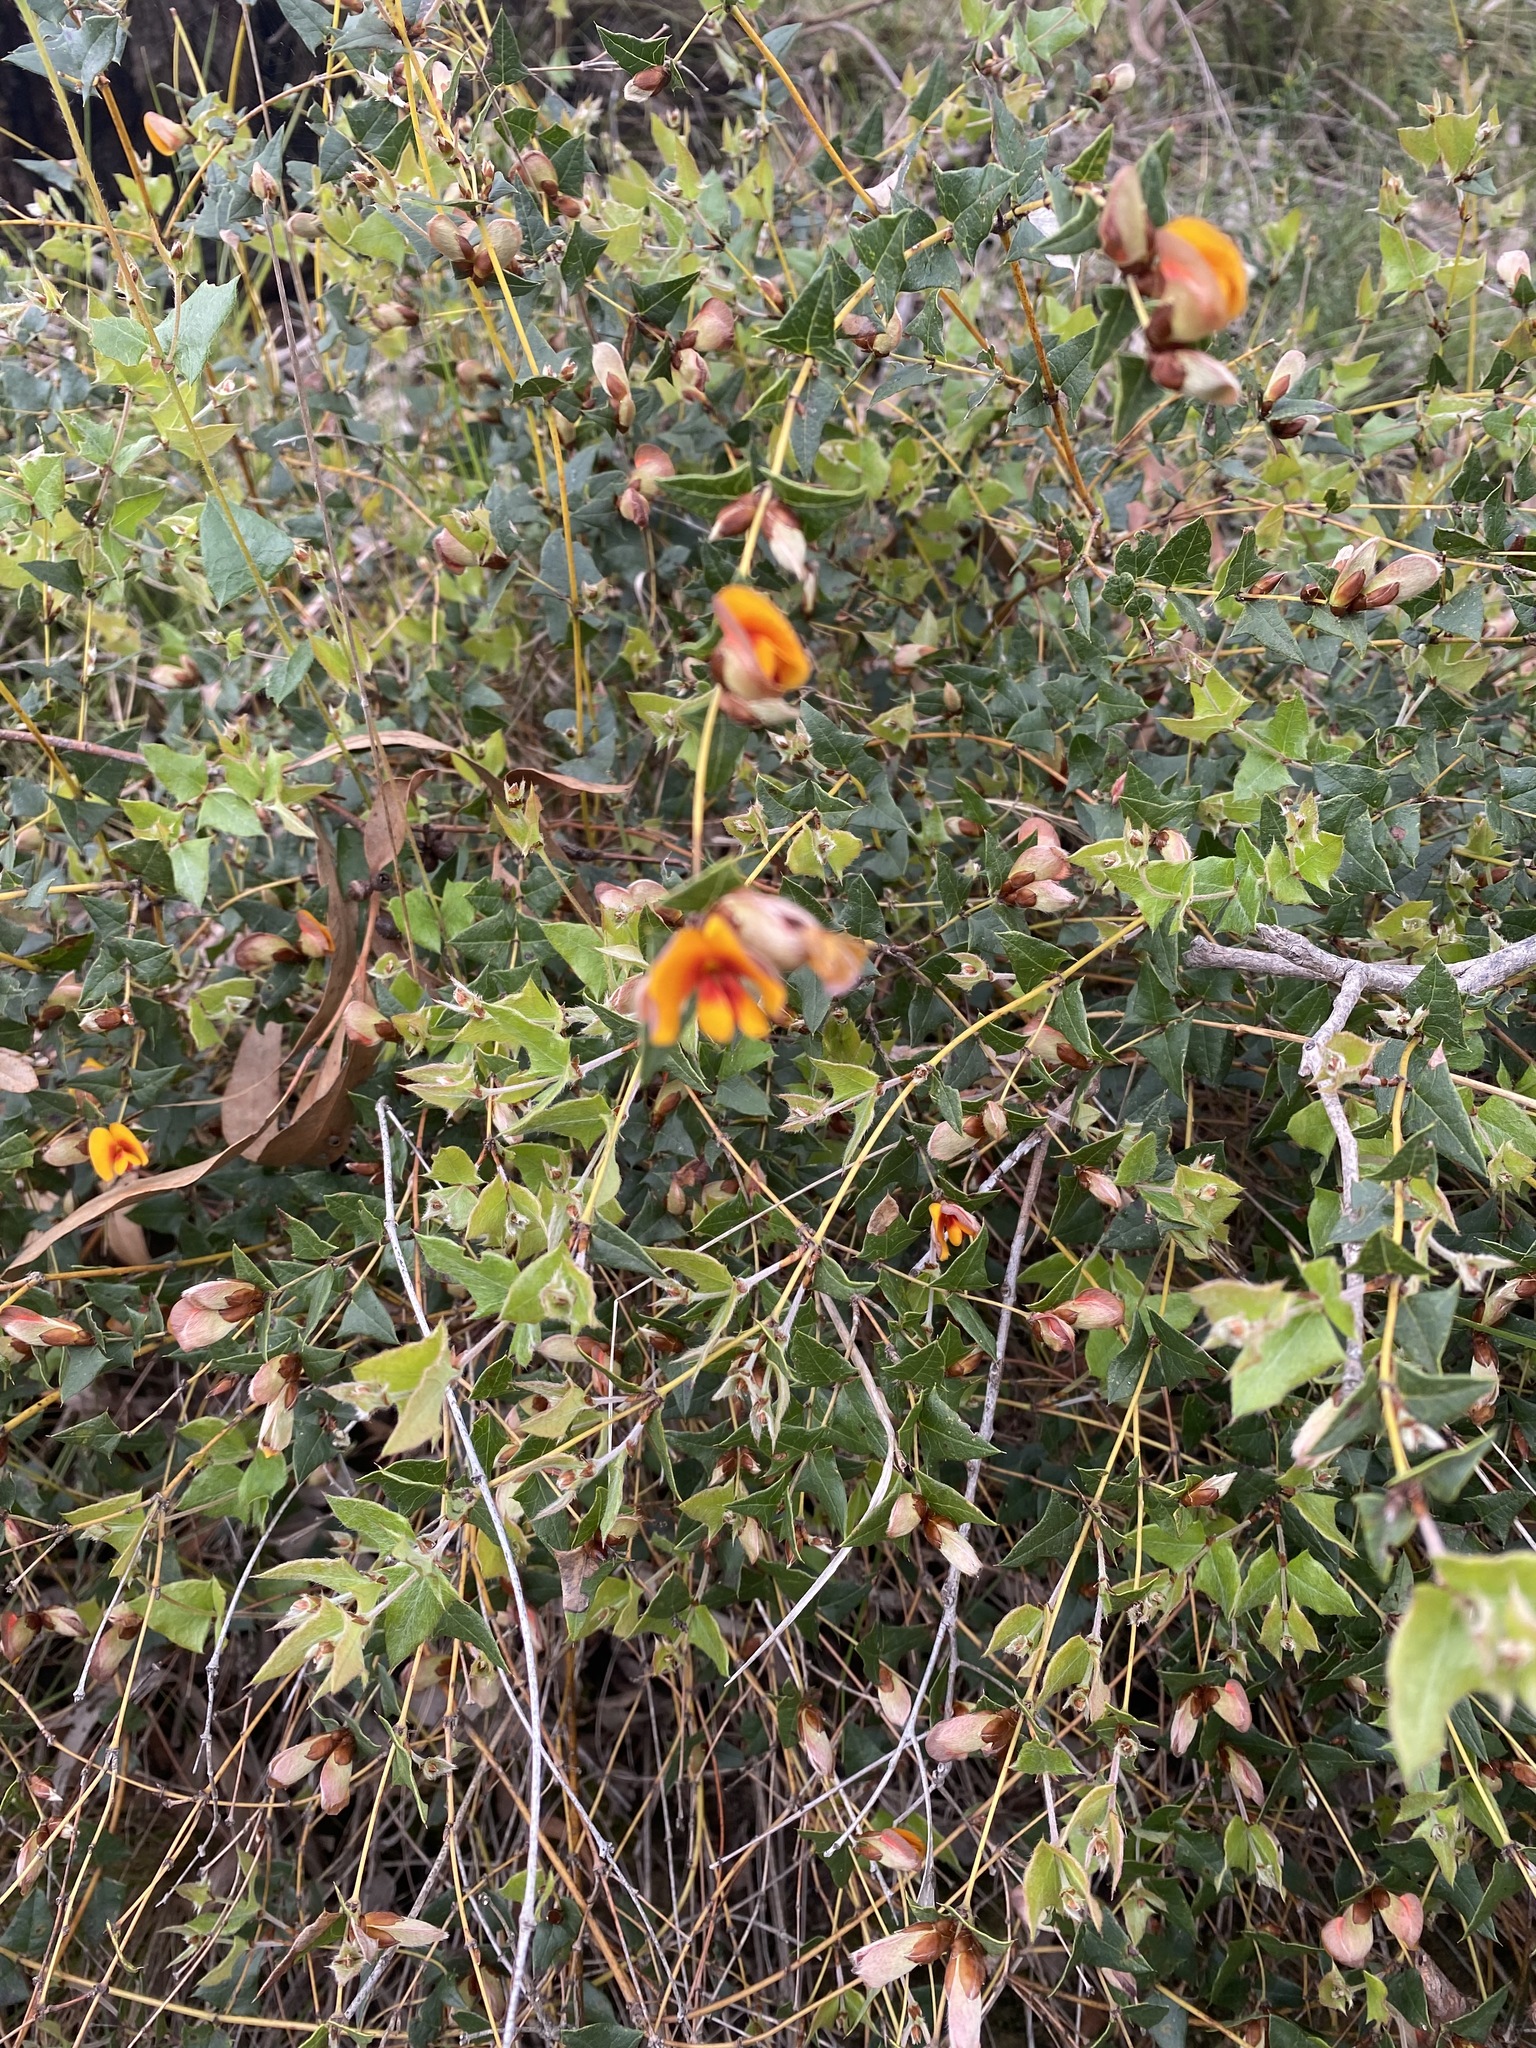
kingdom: Plantae
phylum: Tracheophyta
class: Magnoliopsida
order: Fabales
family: Fabaceae
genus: Platylobium
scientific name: Platylobium obtusangulum
